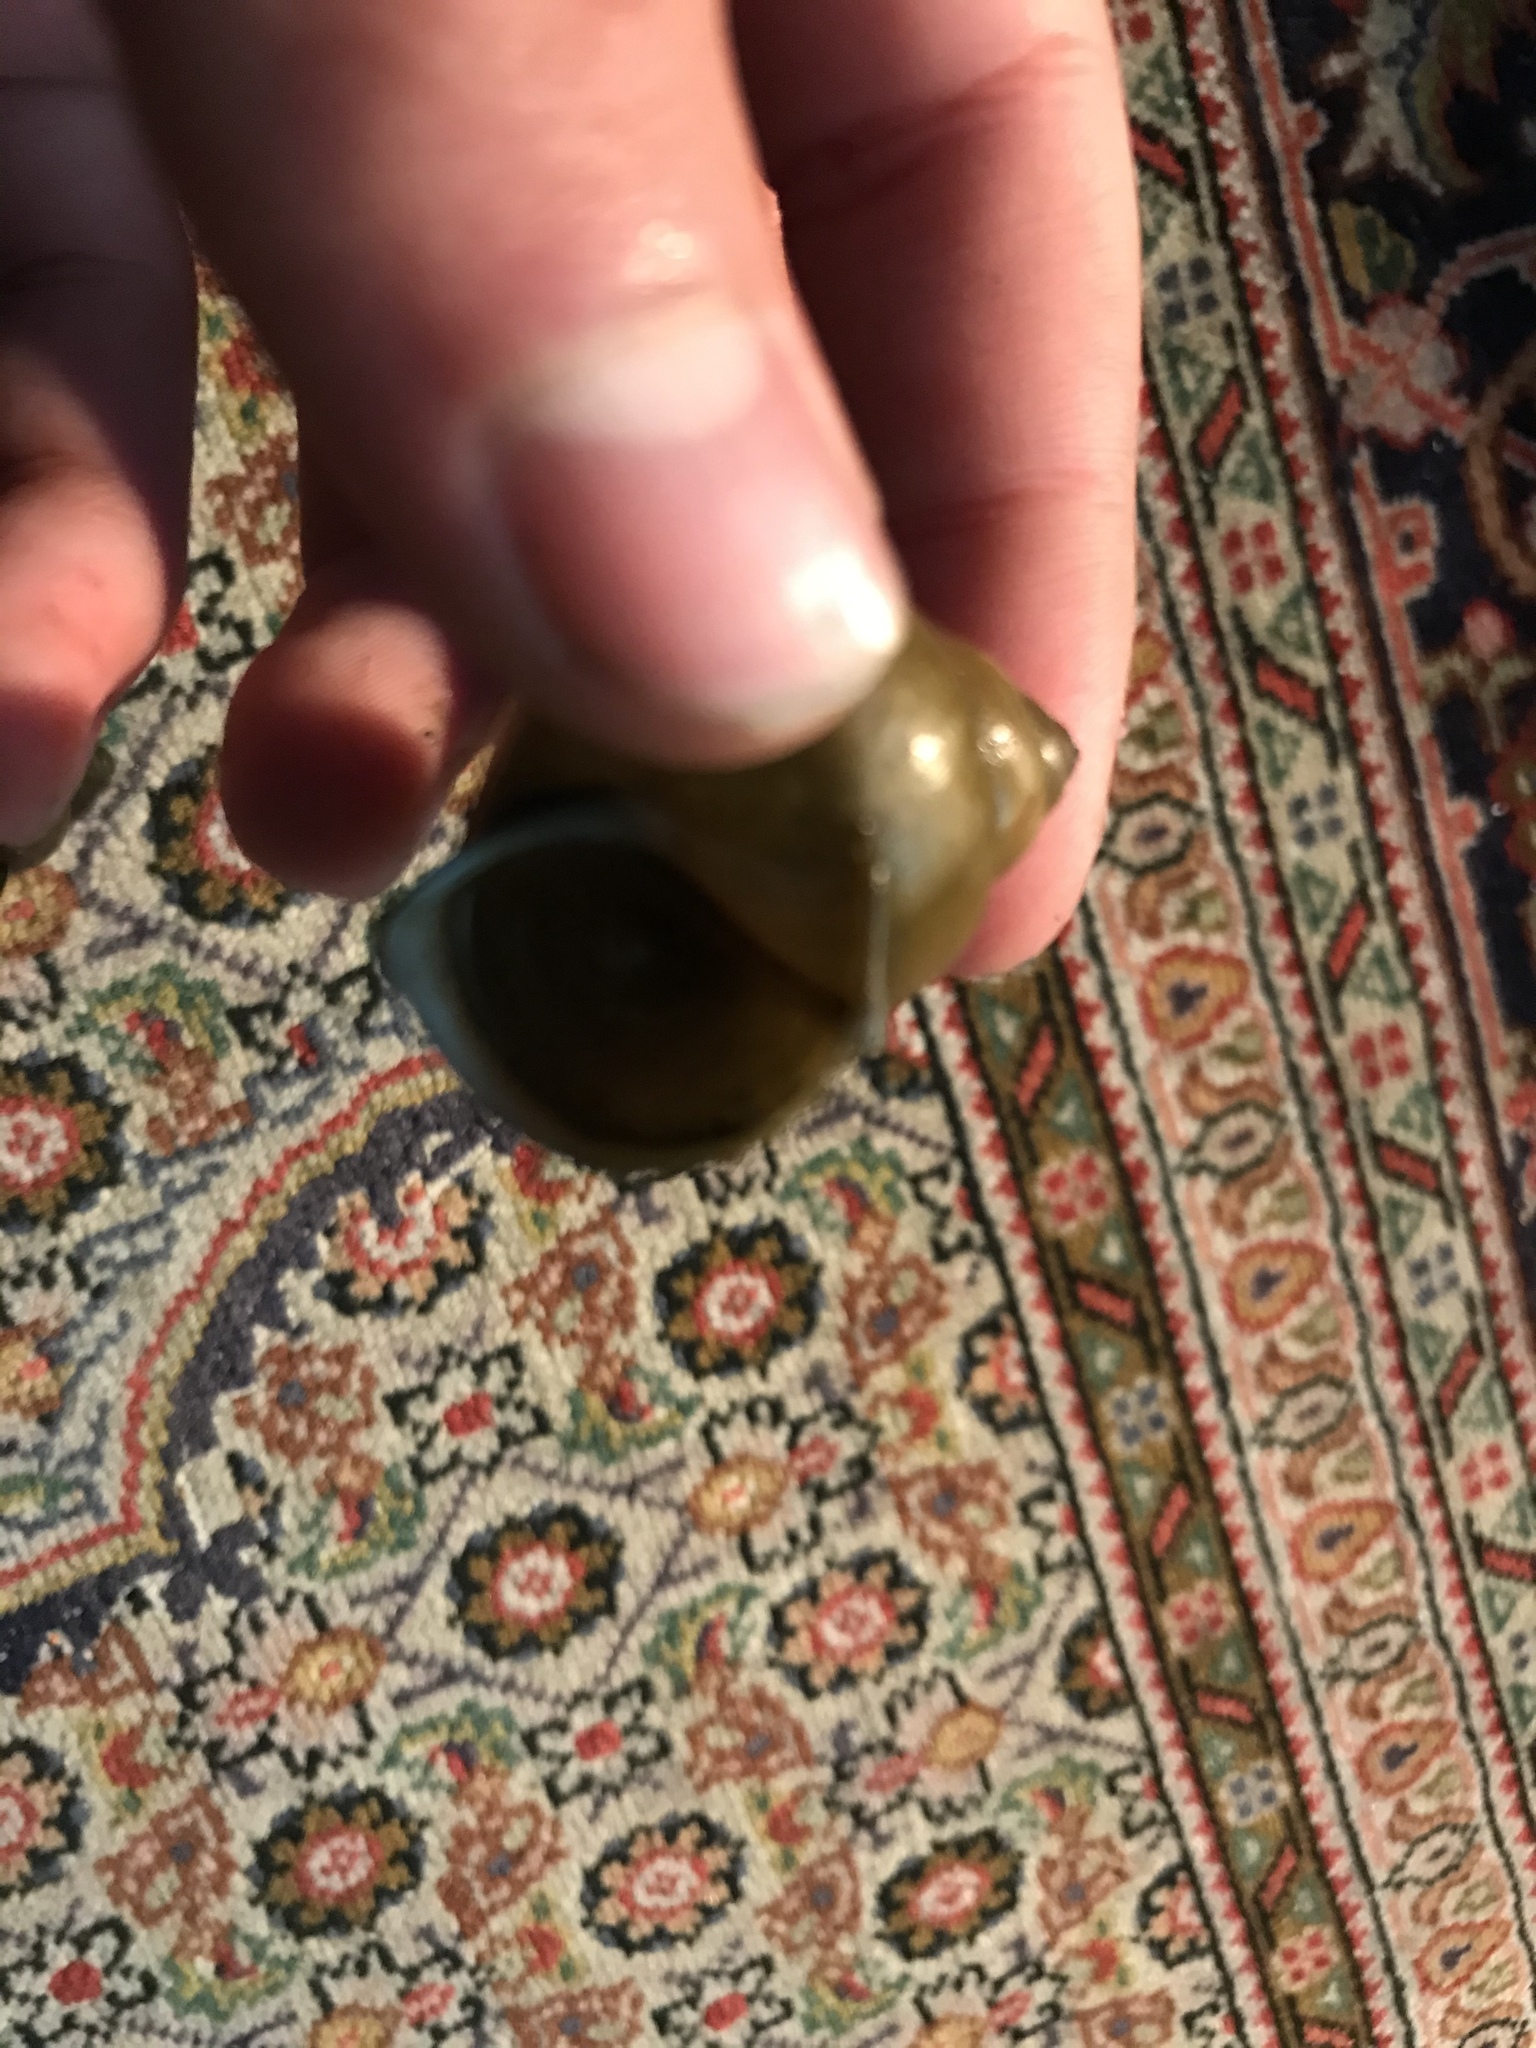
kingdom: Animalia
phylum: Mollusca
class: Gastropoda
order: Architaenioglossa
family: Viviparidae
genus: Cipangopaludina
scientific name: Cipangopaludina chinensis
